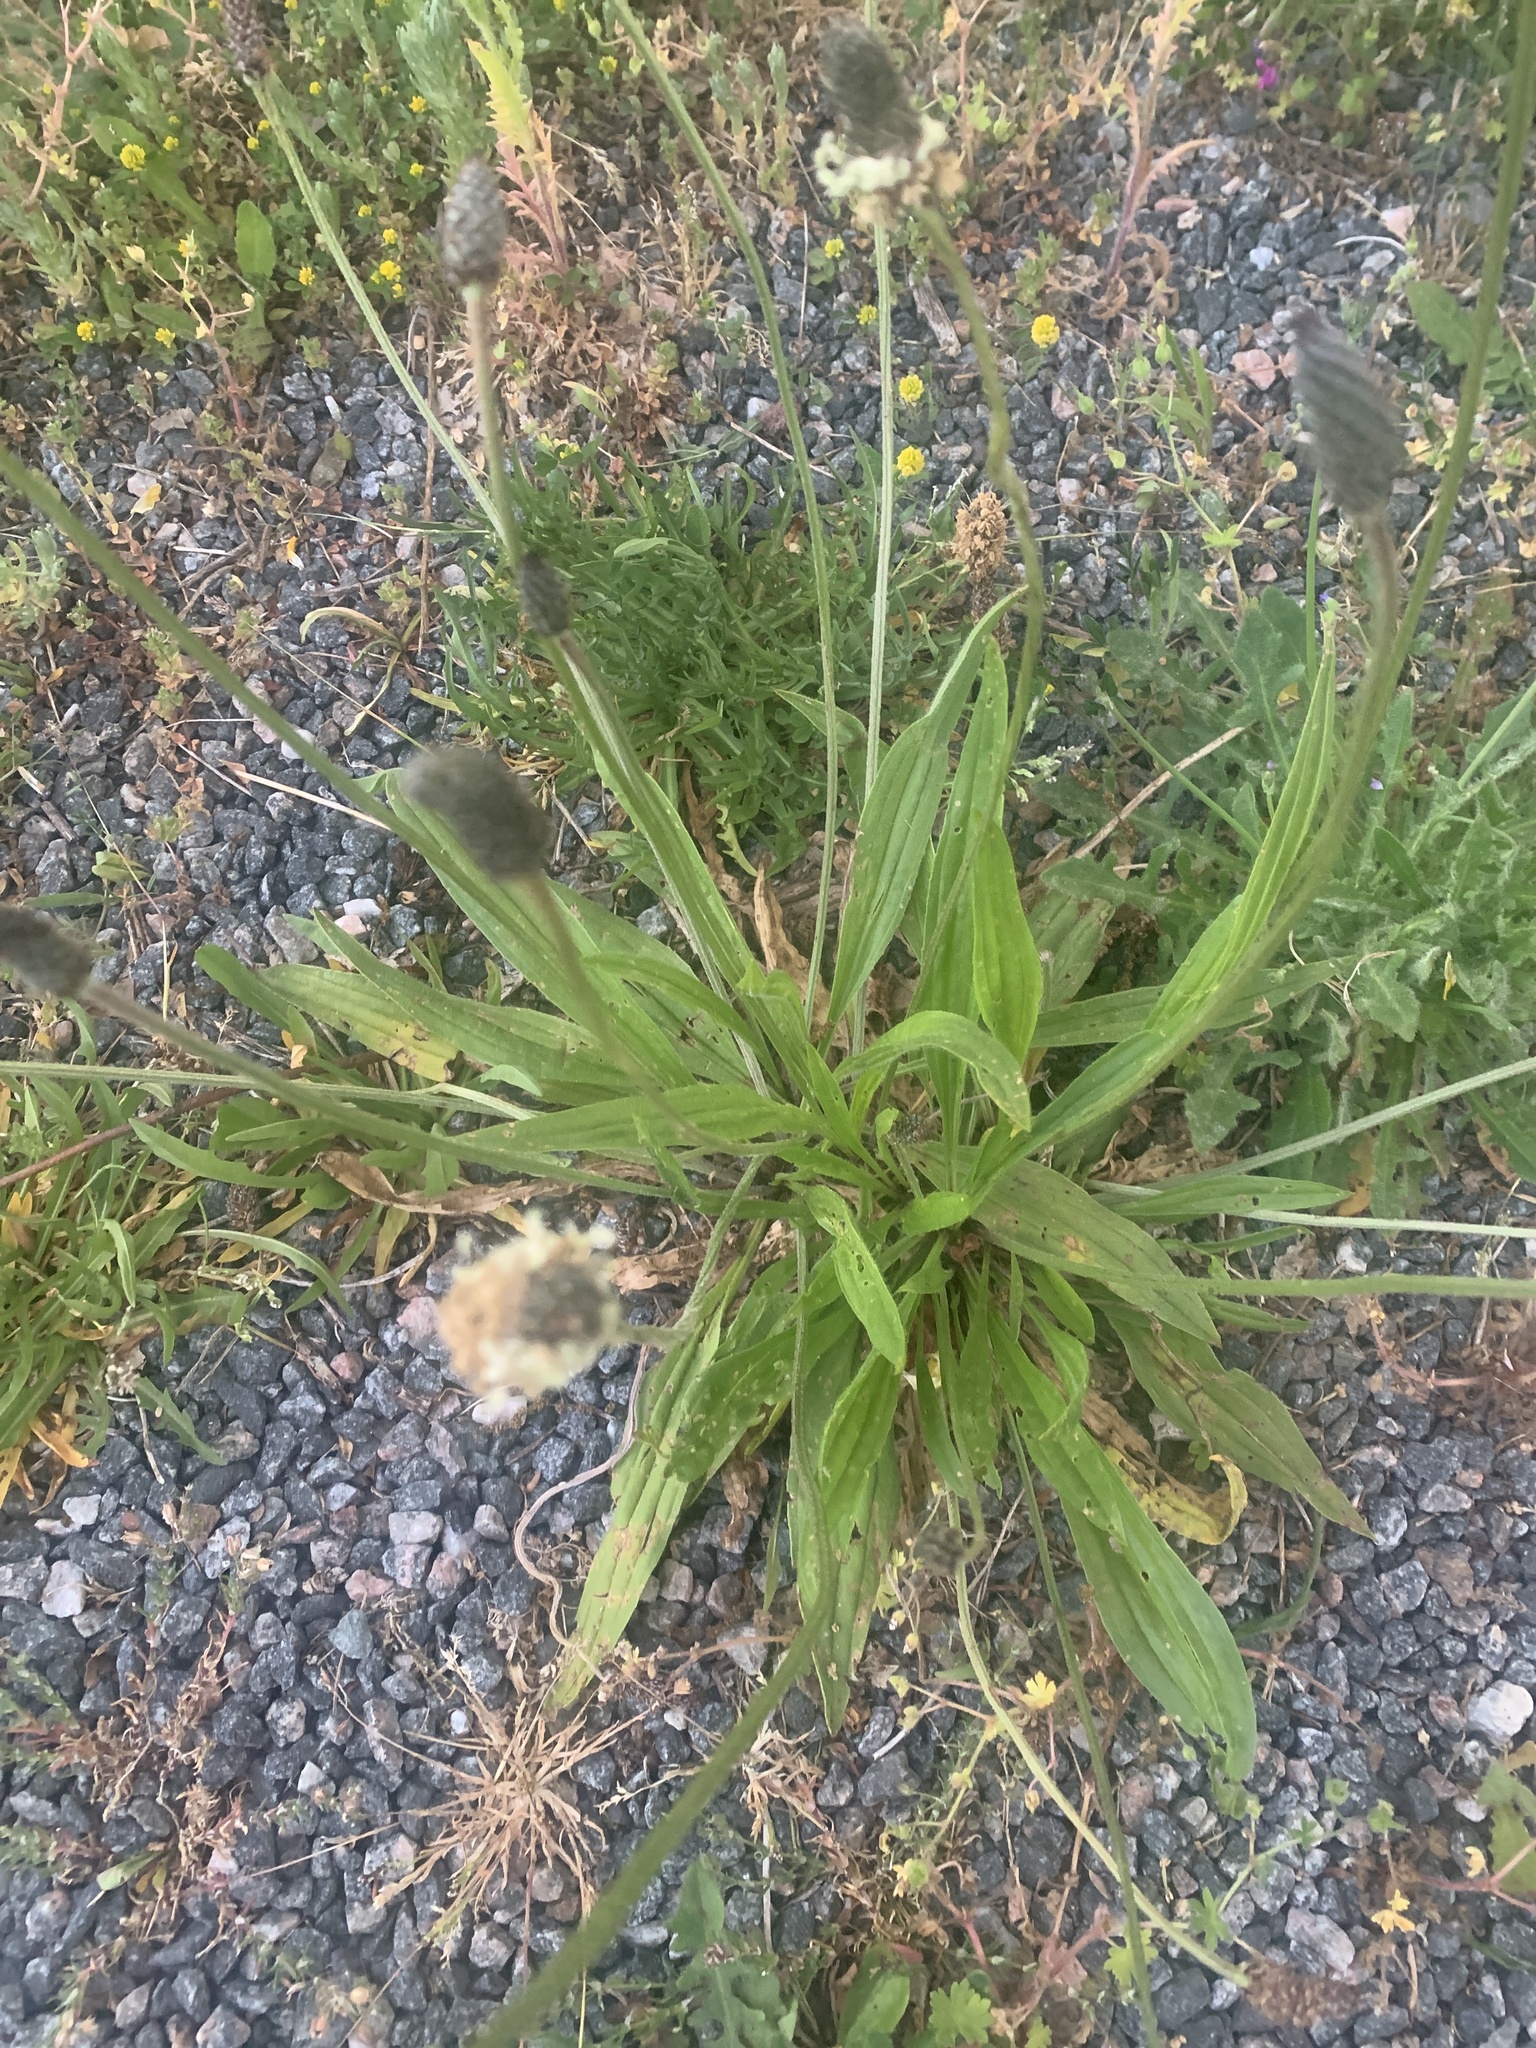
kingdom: Plantae
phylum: Tracheophyta
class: Magnoliopsida
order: Lamiales
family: Plantaginaceae
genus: Plantago
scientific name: Plantago lanceolata
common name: Ribwort plantain
